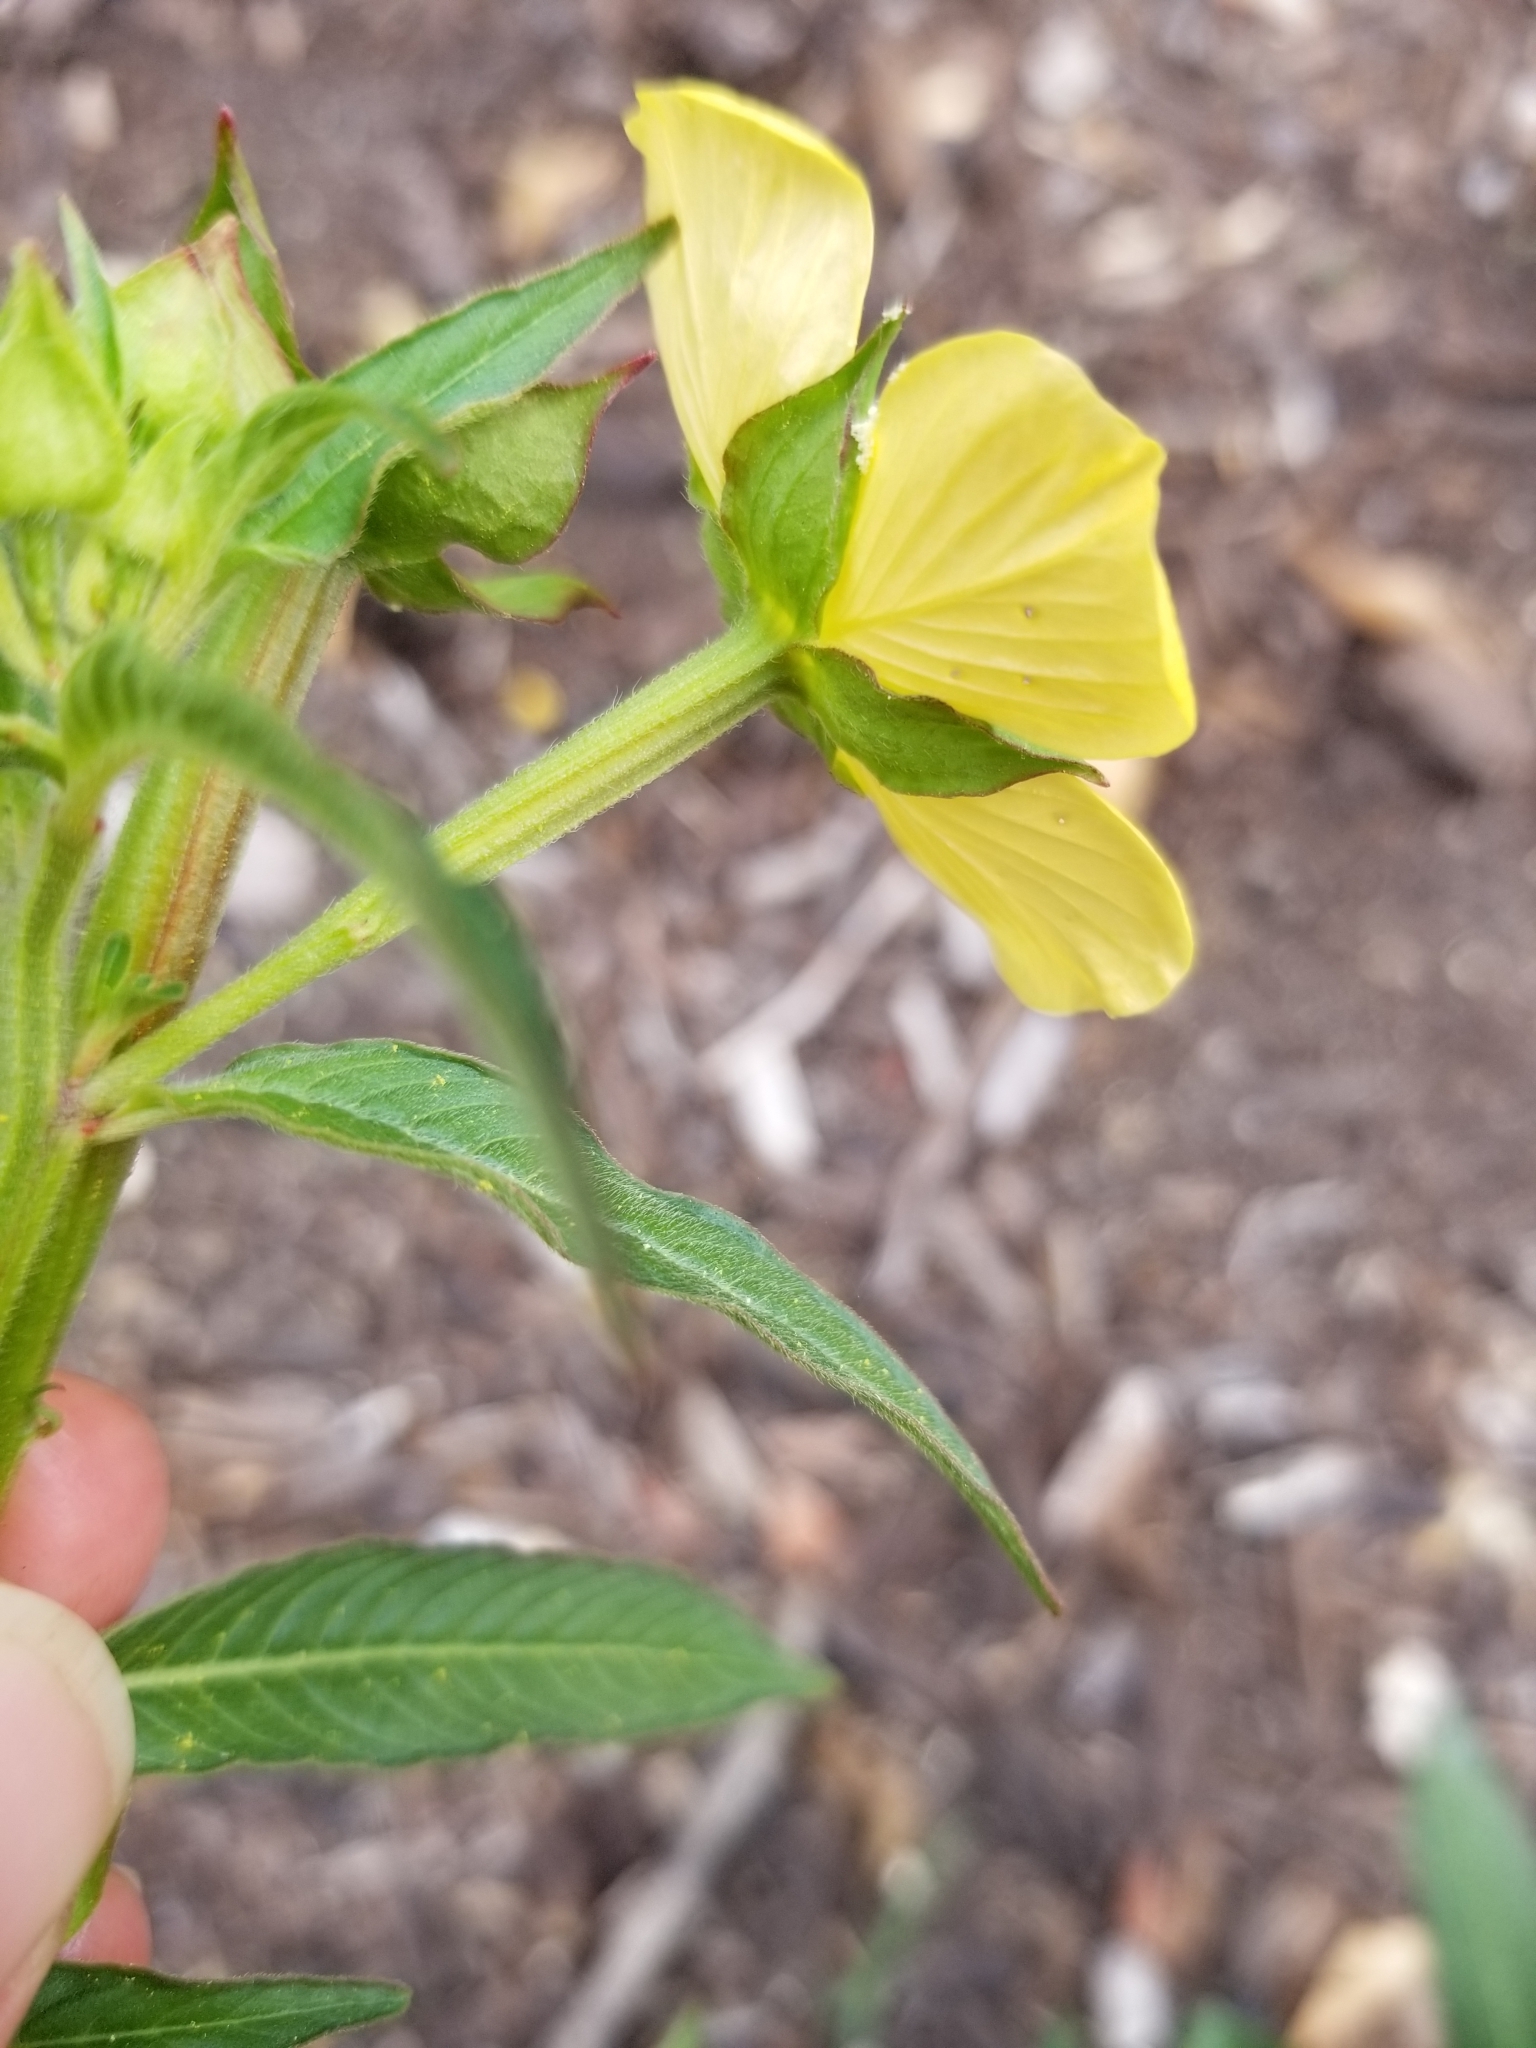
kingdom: Plantae
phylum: Tracheophyta
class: Magnoliopsida
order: Myrtales
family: Onagraceae
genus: Ludwigia
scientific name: Ludwigia octovalvis
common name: Water-primrose
